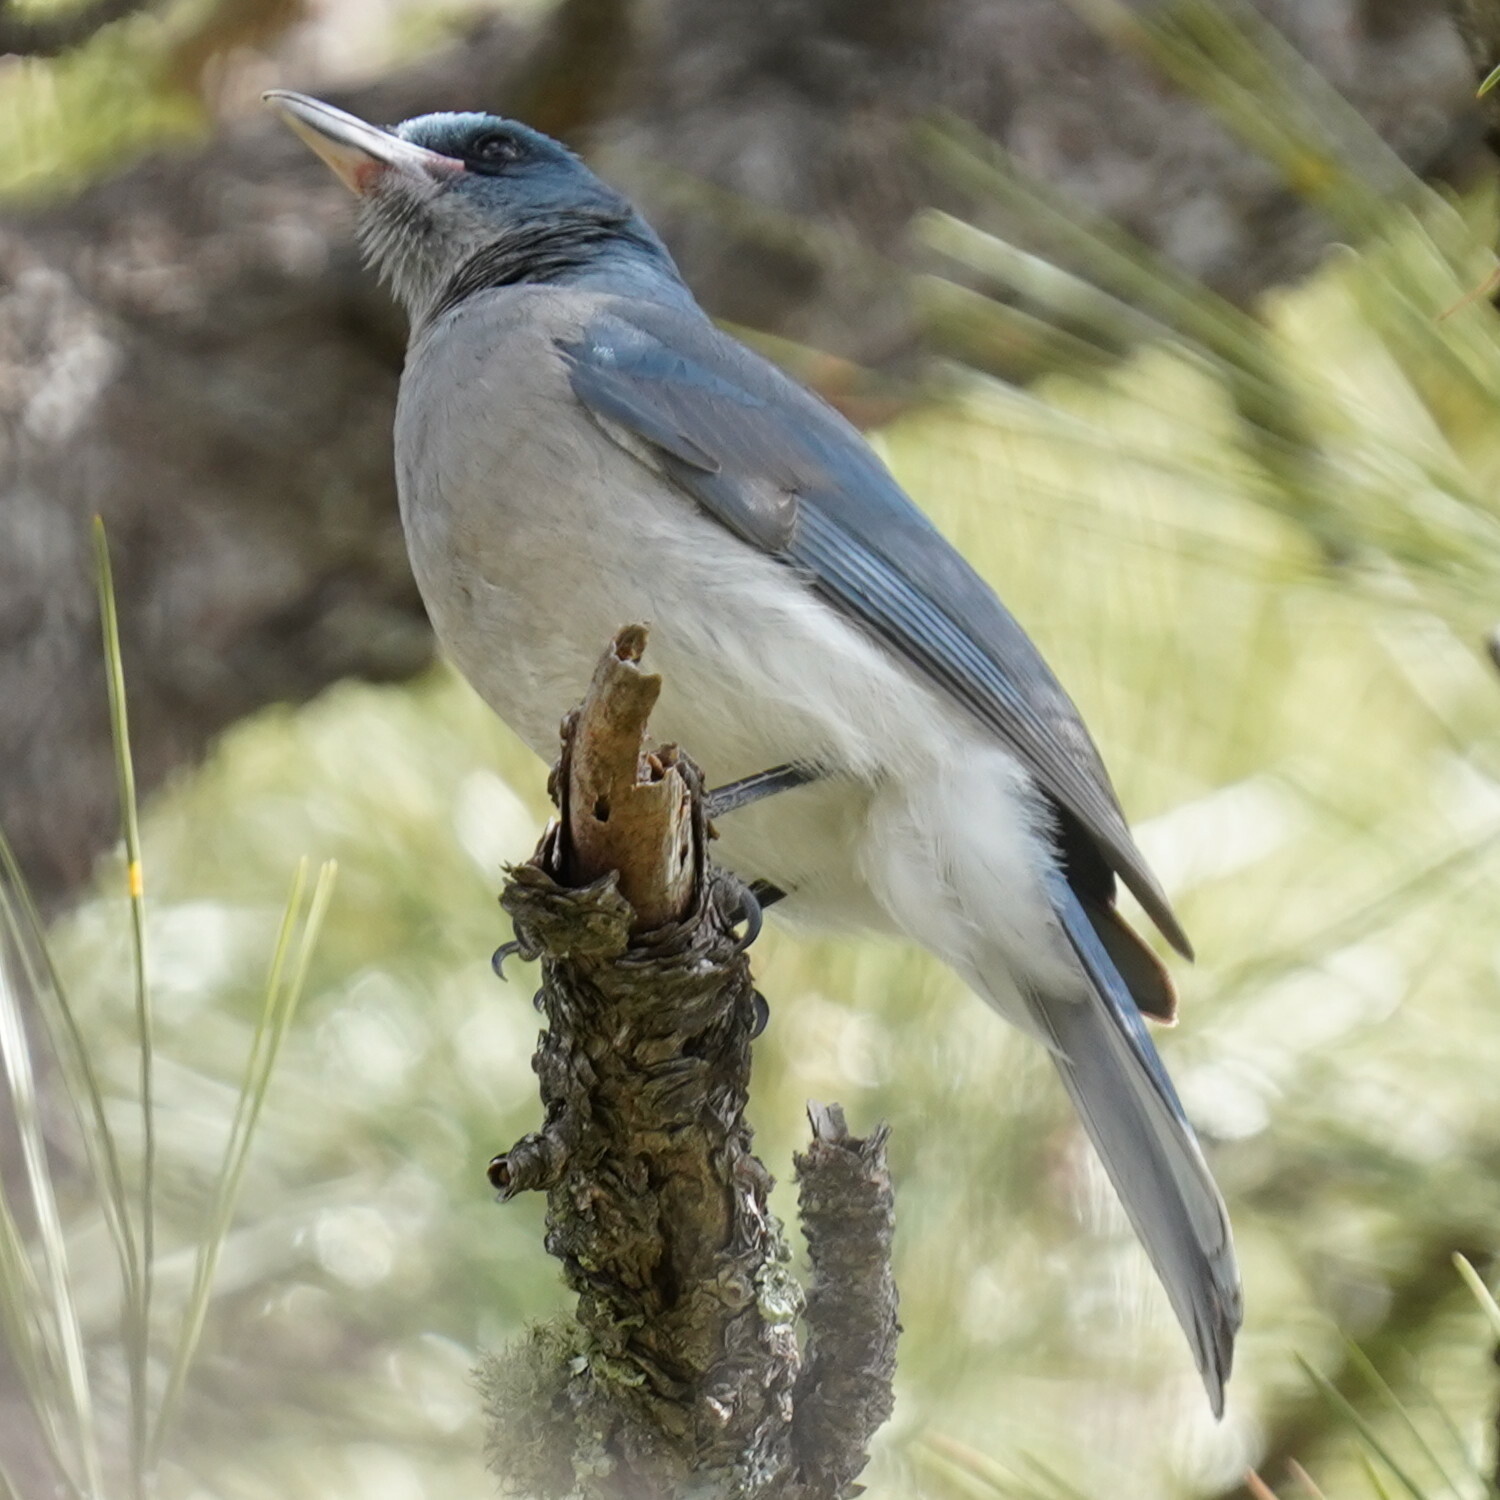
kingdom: Animalia
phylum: Chordata
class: Aves
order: Passeriformes
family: Corvidae
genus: Aphelocoma
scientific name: Aphelocoma wollweberi
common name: Mexican jay
